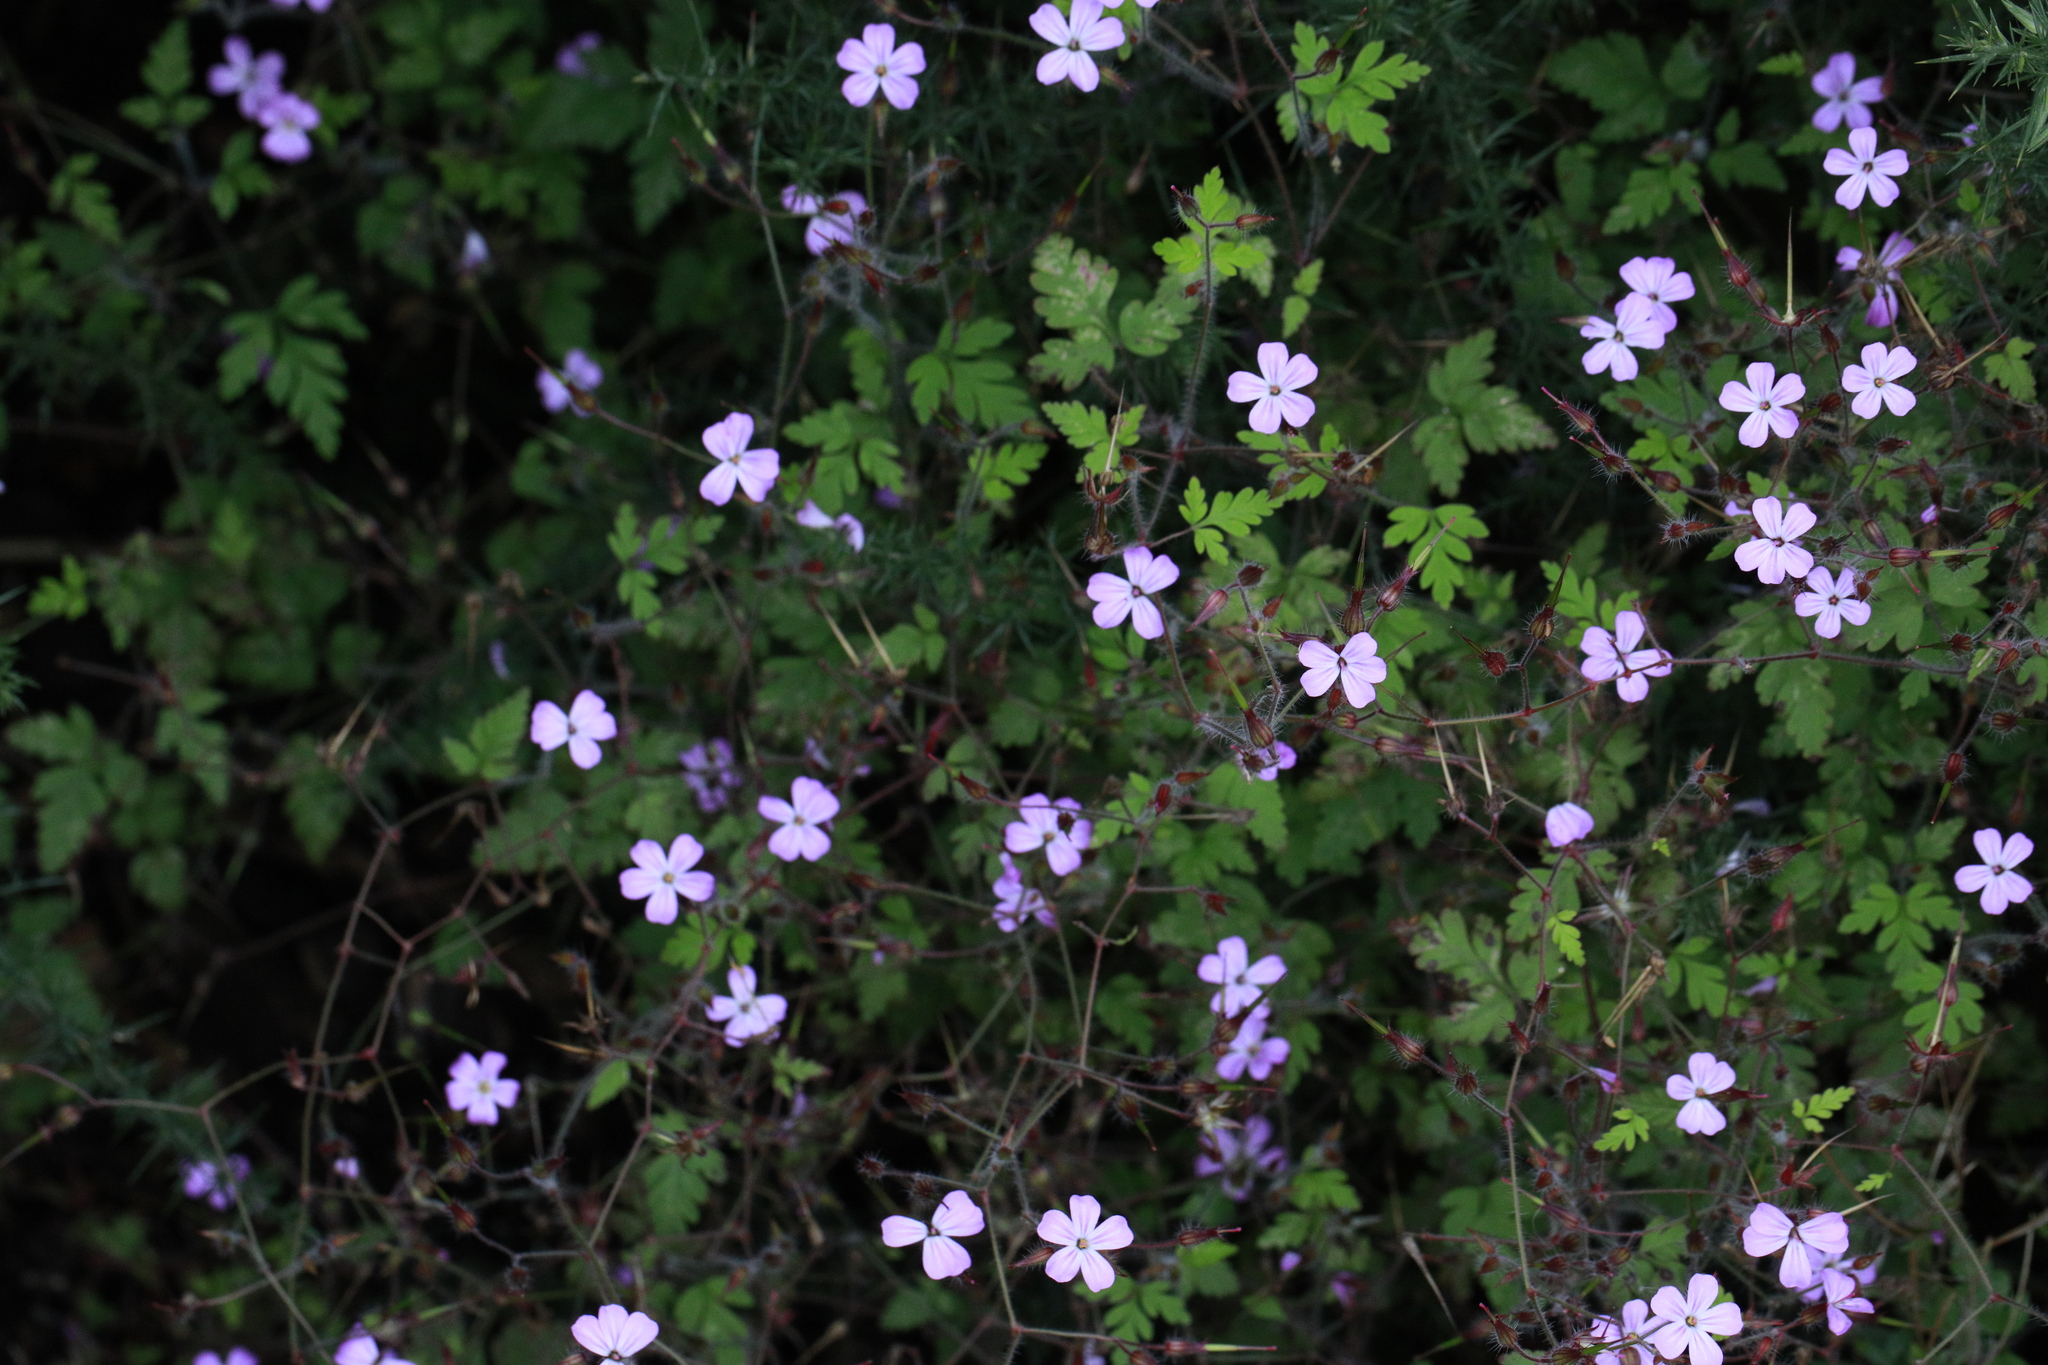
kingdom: Plantae
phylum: Tracheophyta
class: Magnoliopsida
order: Geraniales
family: Geraniaceae
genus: Geranium
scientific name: Geranium robertianum
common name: Herb-robert
